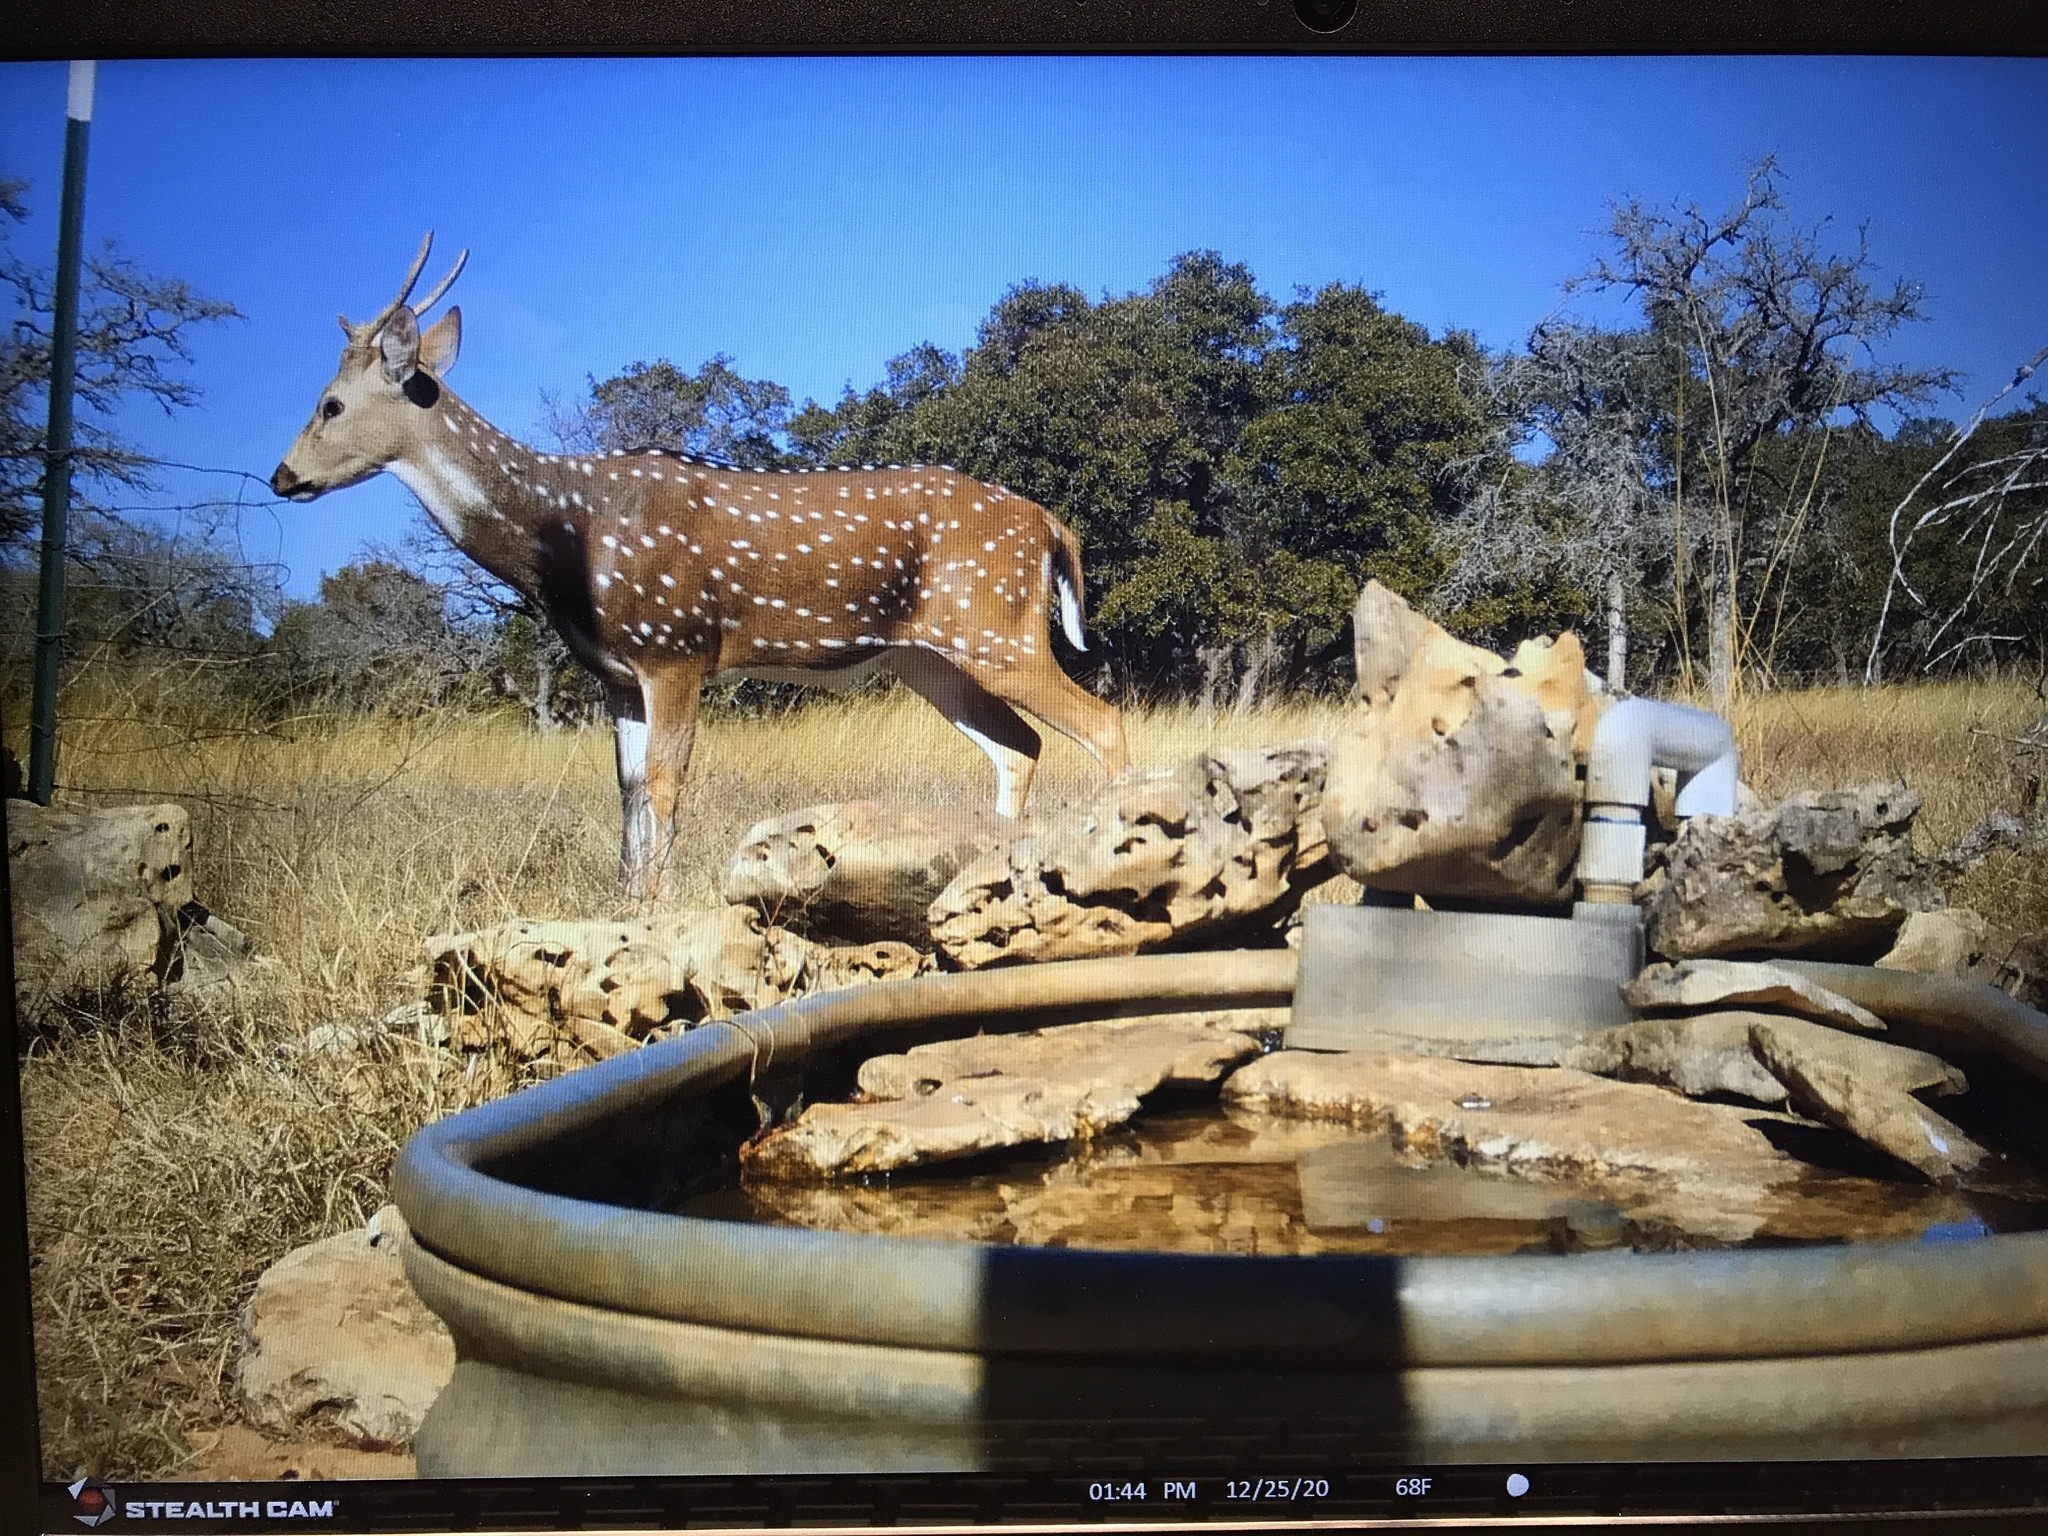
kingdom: Animalia
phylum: Chordata
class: Mammalia
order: Artiodactyla
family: Cervidae
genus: Axis
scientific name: Axis axis
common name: Chital
